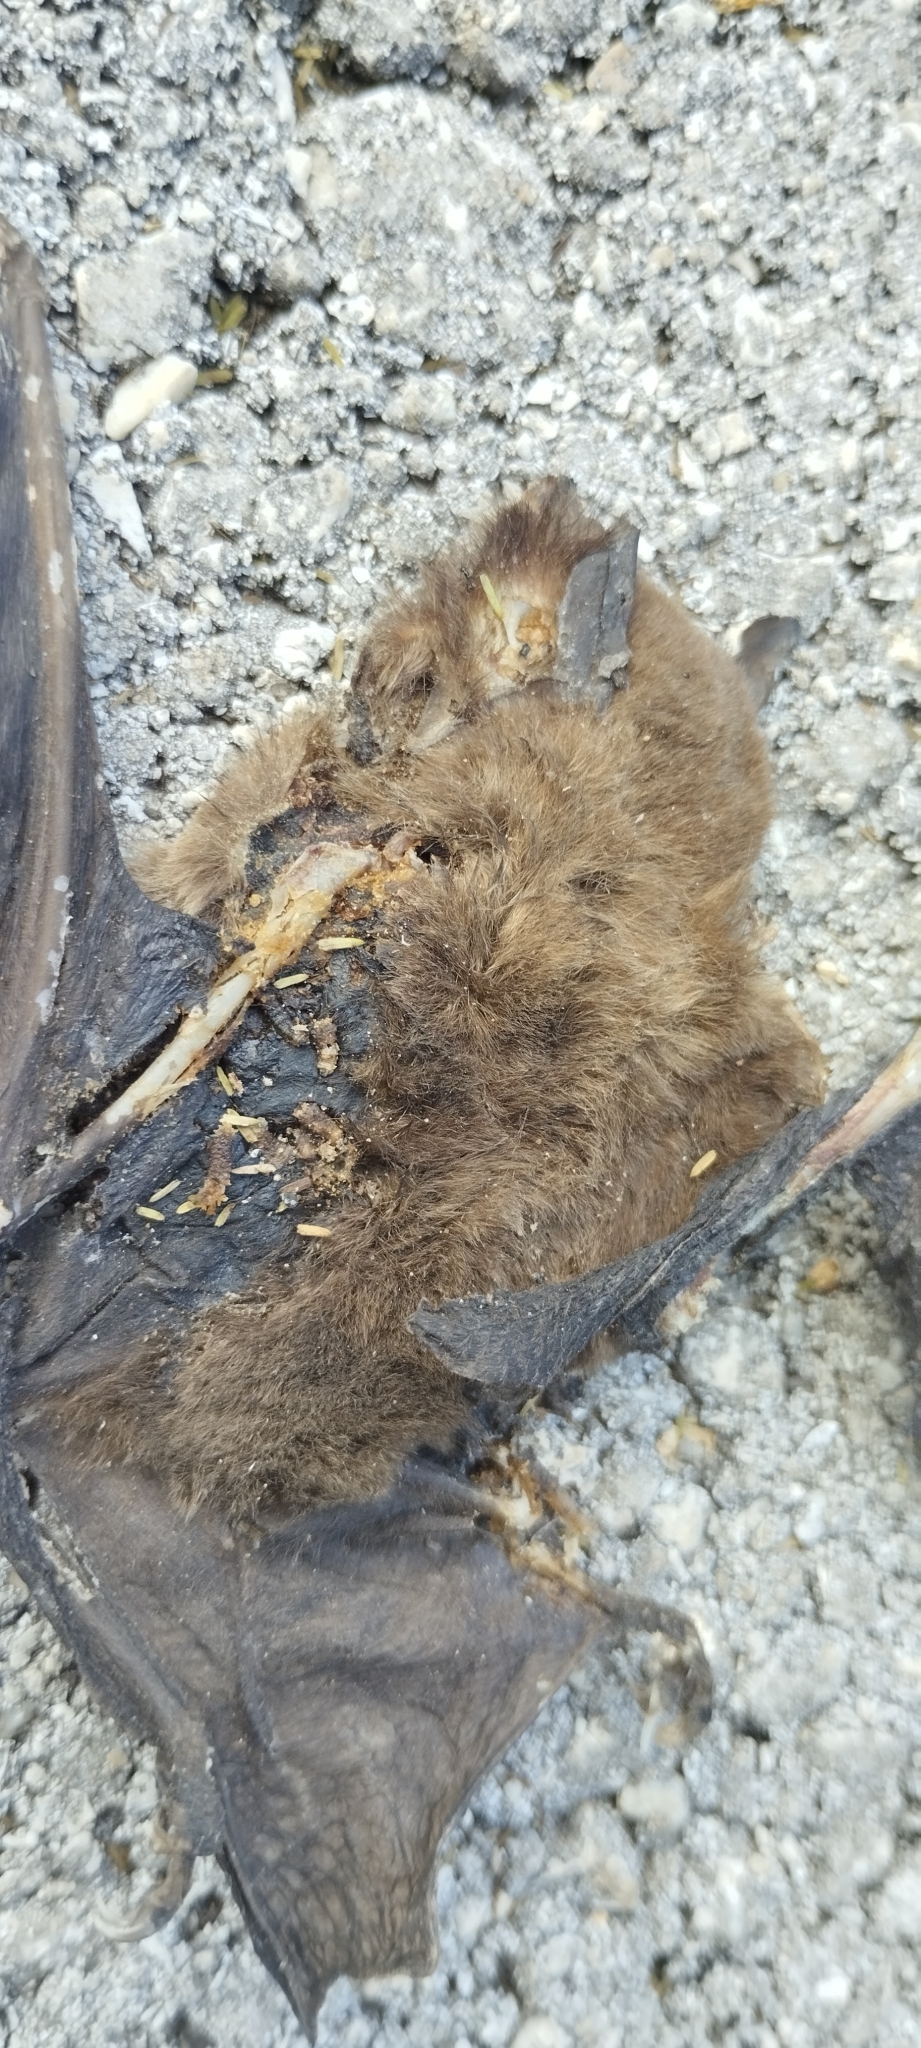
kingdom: Animalia
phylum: Chordata
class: Mammalia
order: Chiroptera
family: Mormoopidae
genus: Pteronotus
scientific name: Pteronotus mesoamericanus
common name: Mesoamerican common mustached bat
